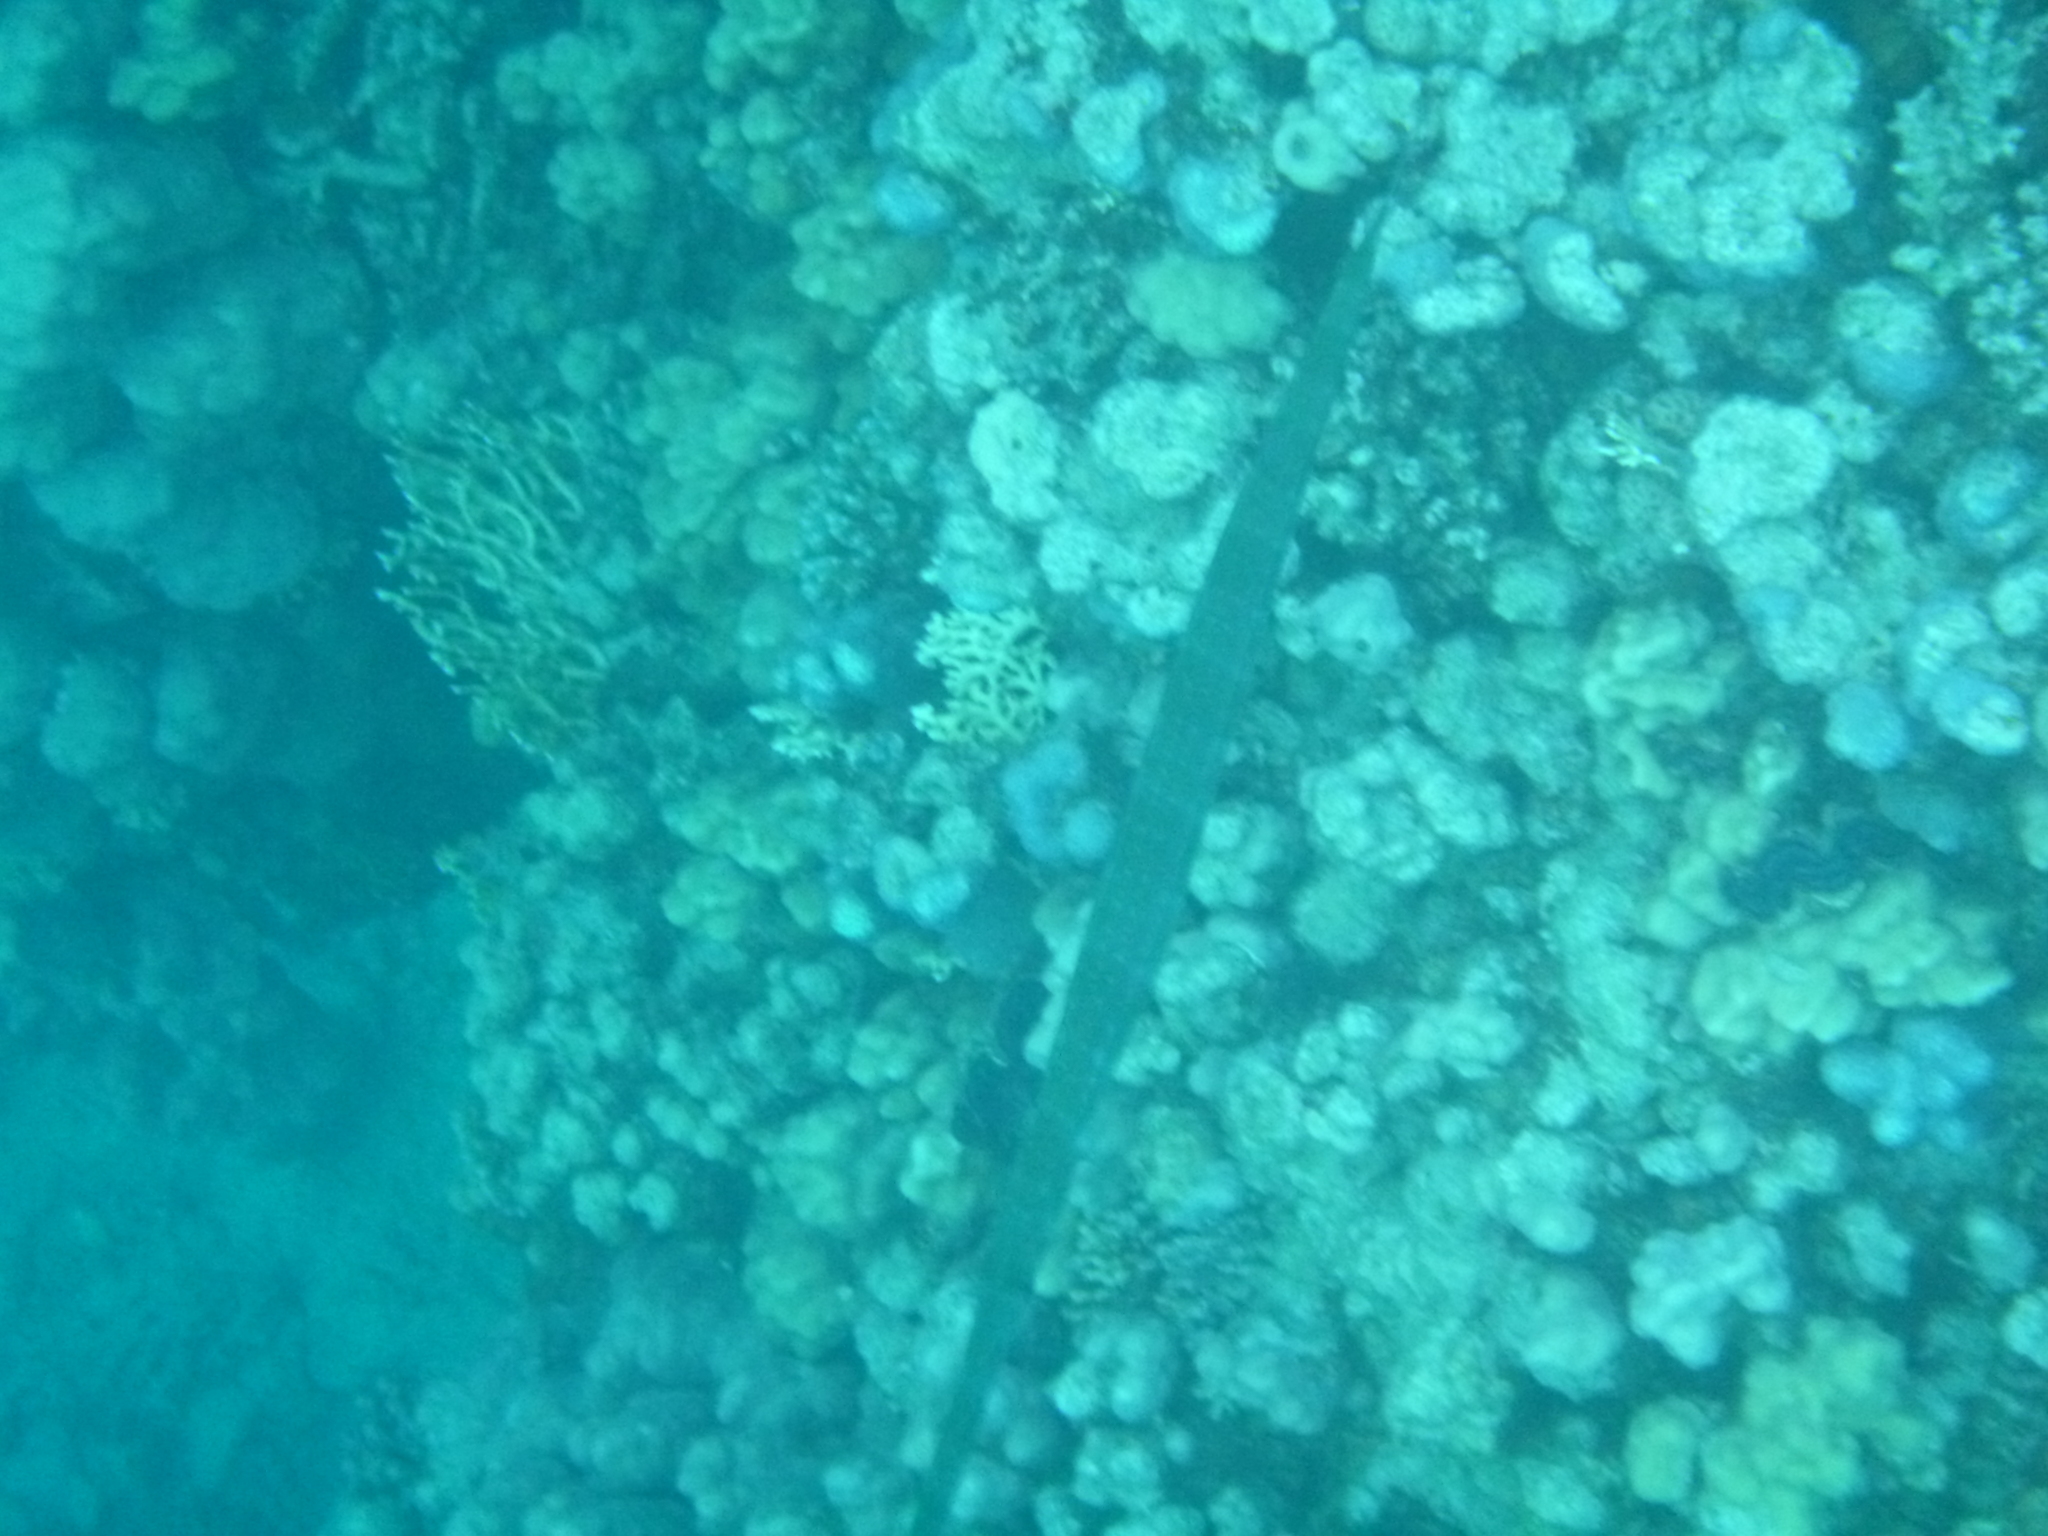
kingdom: Animalia
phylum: Chordata
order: Syngnathiformes
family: Fistulariidae
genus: Fistularia
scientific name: Fistularia commersonii
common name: Bluespotted cornetfish
